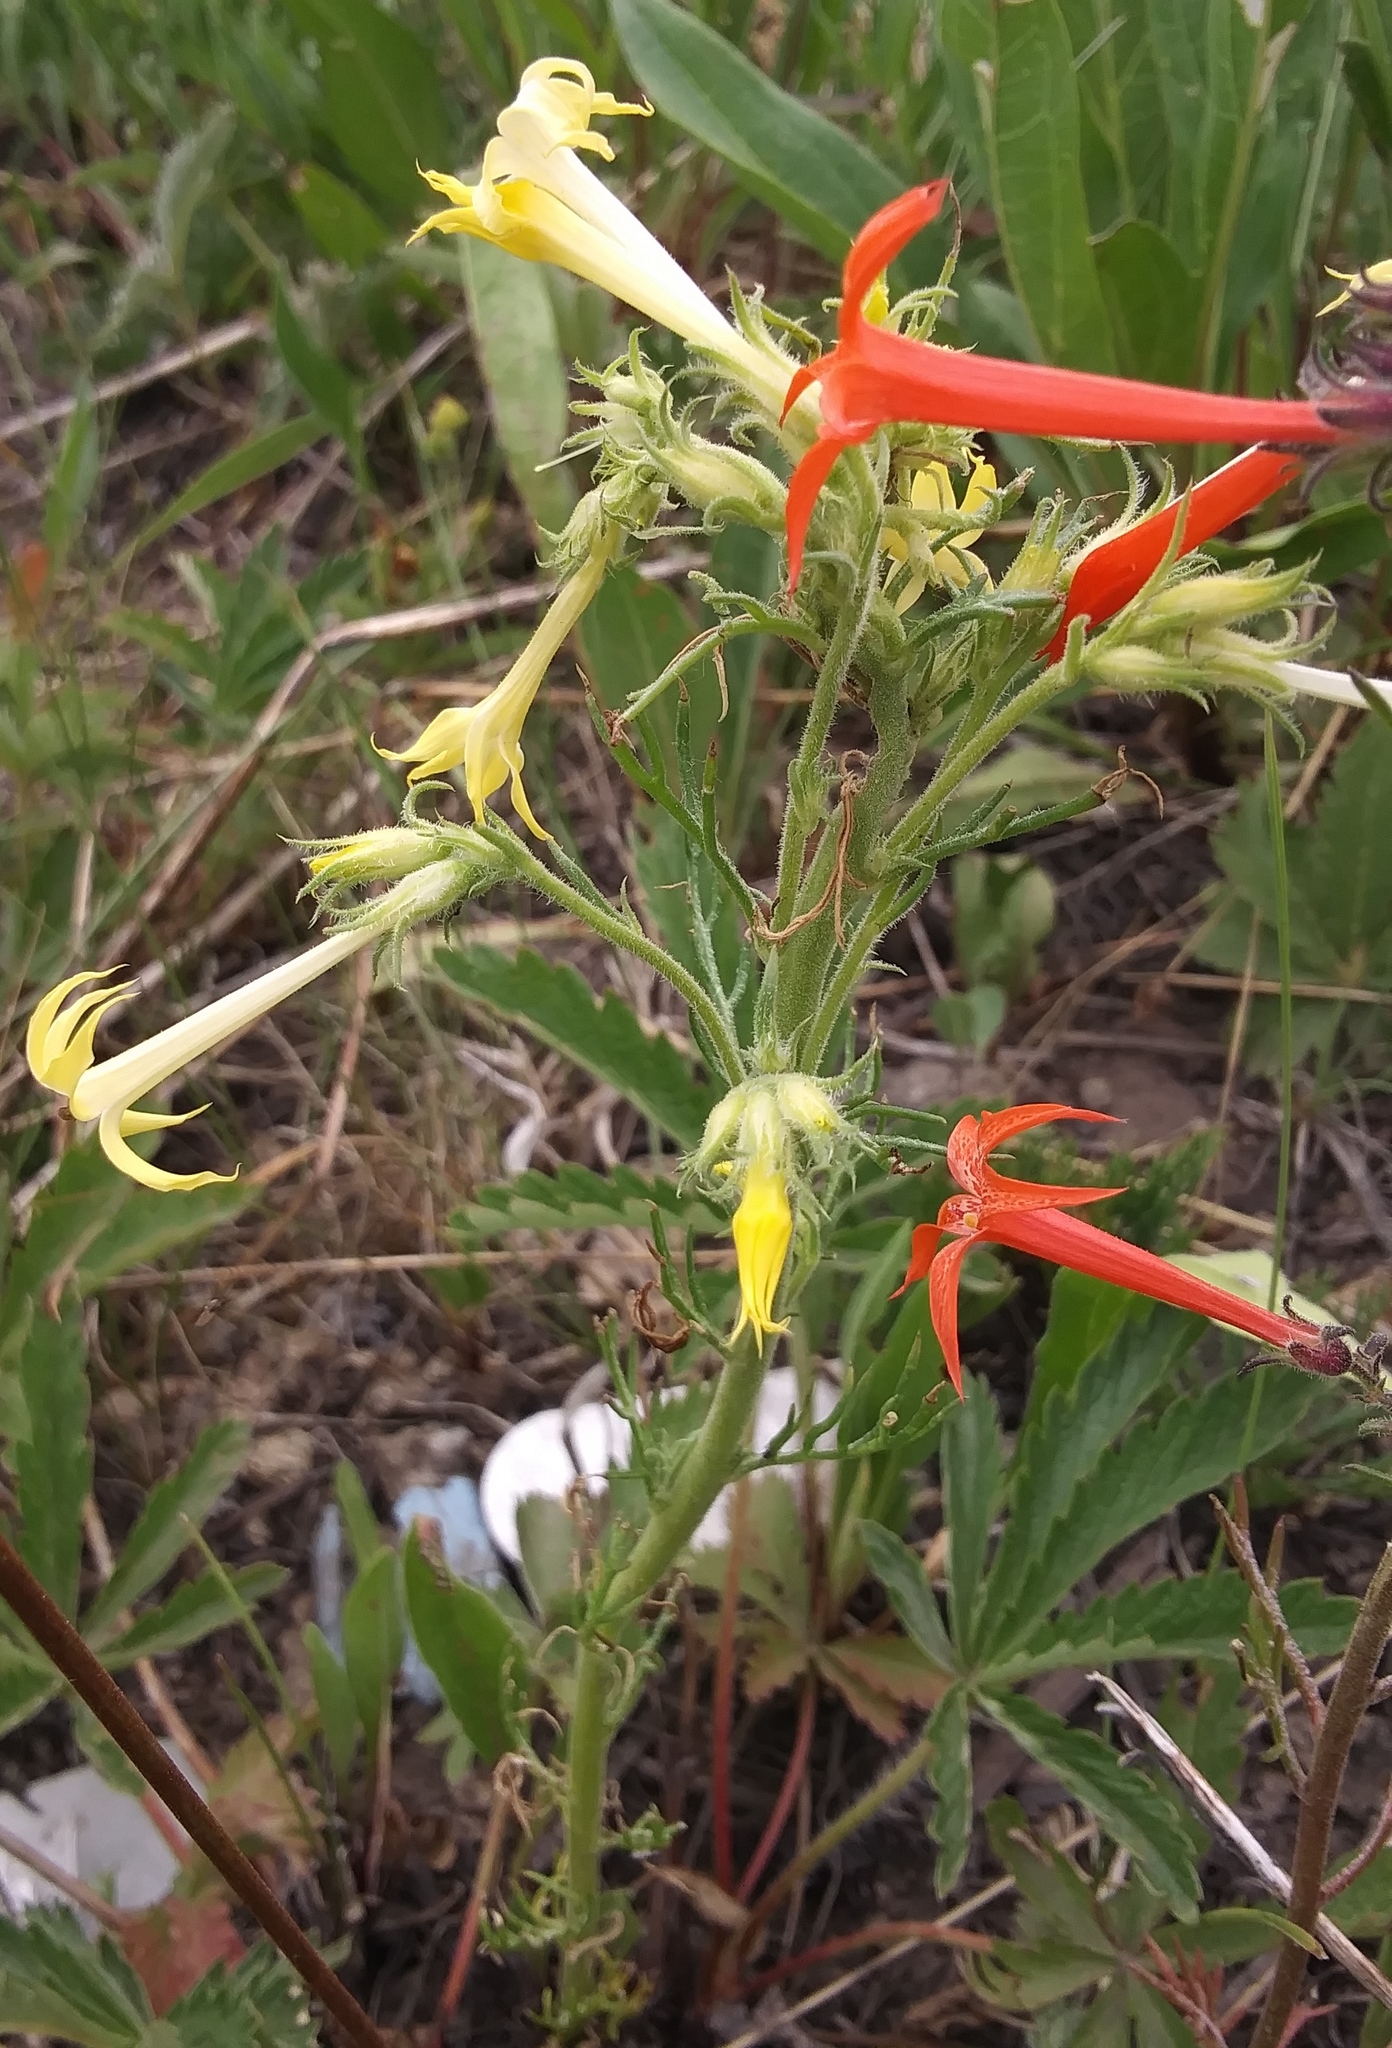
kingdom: Plantae
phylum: Tracheophyta
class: Magnoliopsida
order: Ericales
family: Polemoniaceae
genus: Ipomopsis
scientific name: Ipomopsis aggregata
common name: Scarlet gilia
